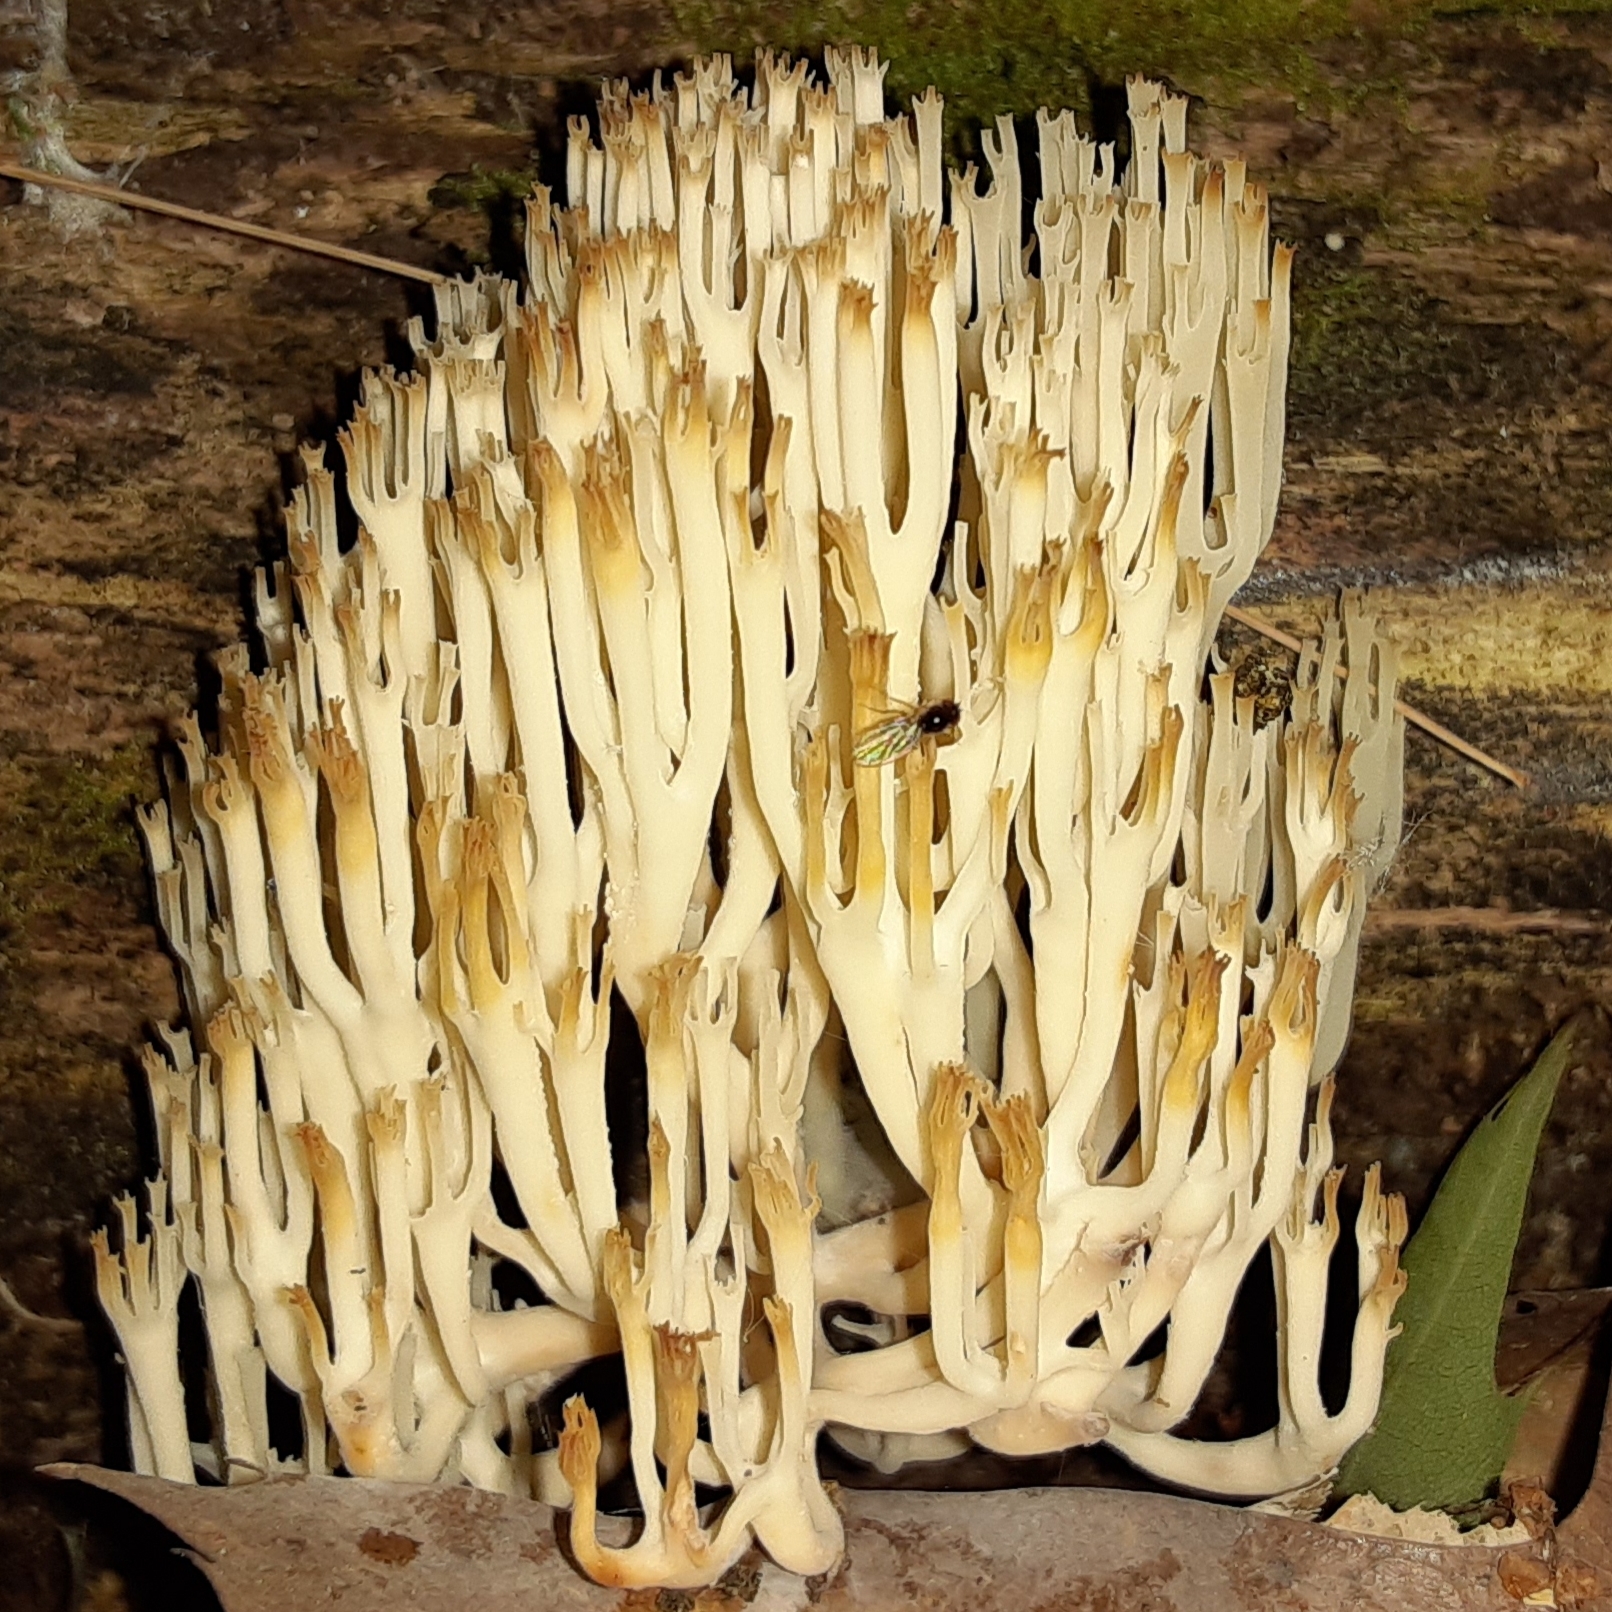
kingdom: Fungi
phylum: Basidiomycota
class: Agaricomycetes
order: Russulales
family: Auriscalpiaceae
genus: Artomyces
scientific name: Artomyces pyxidatus
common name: Crown-tipped coral fungus
